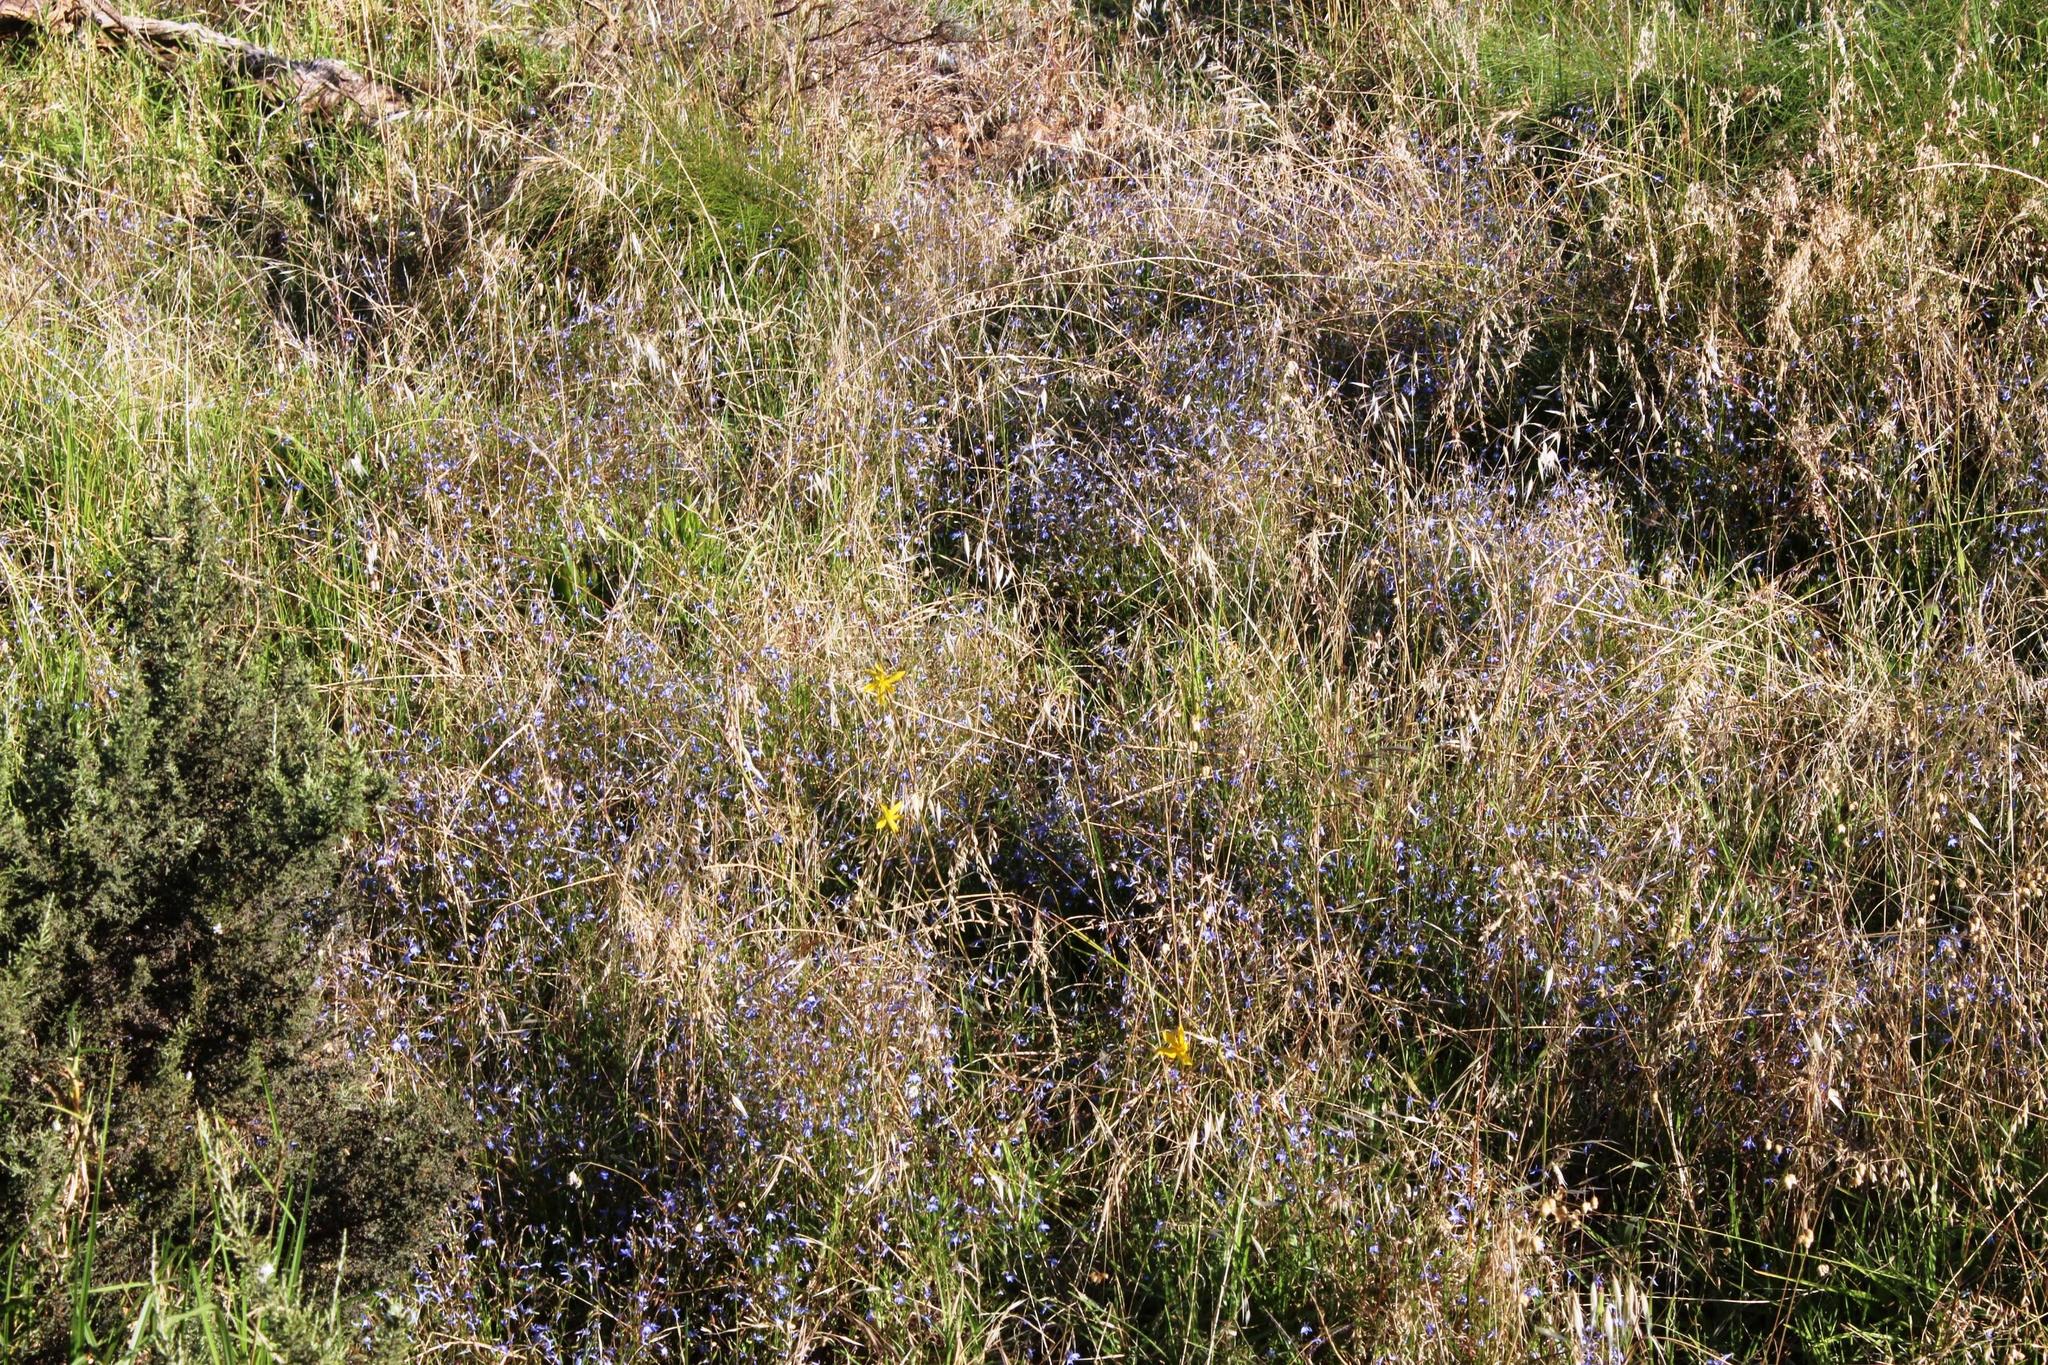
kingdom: Plantae
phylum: Tracheophyta
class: Liliopsida
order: Poales
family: Poaceae
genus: Avena
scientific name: Avena fatua
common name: Wild oat
